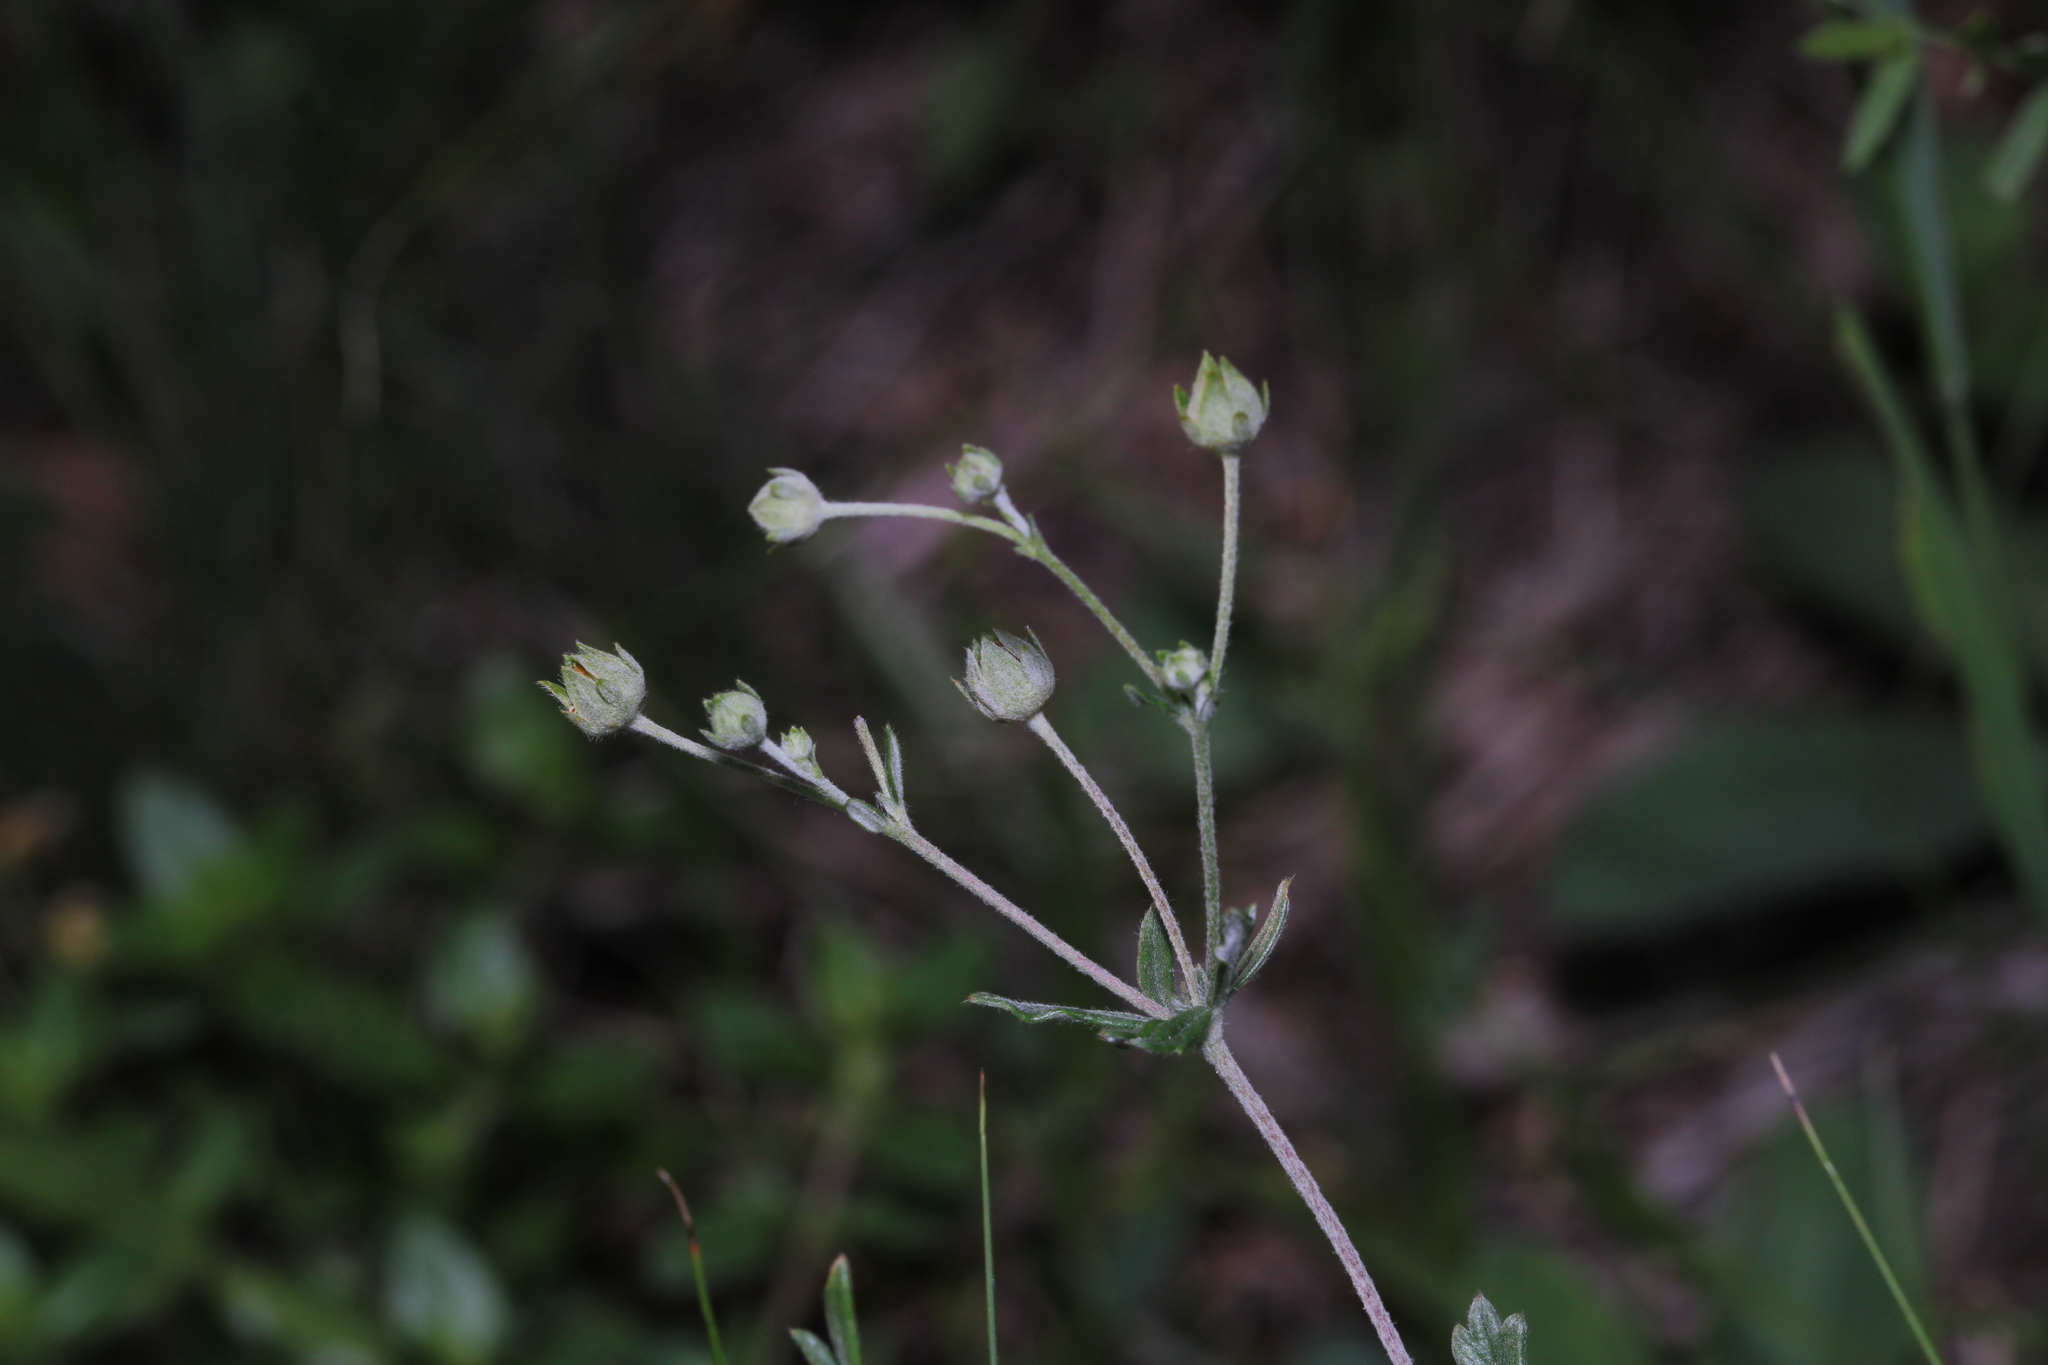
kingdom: Plantae
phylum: Tracheophyta
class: Magnoliopsida
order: Rosales
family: Rosaceae
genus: Potentilla
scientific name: Potentilla argentea
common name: Hoary cinquefoil
